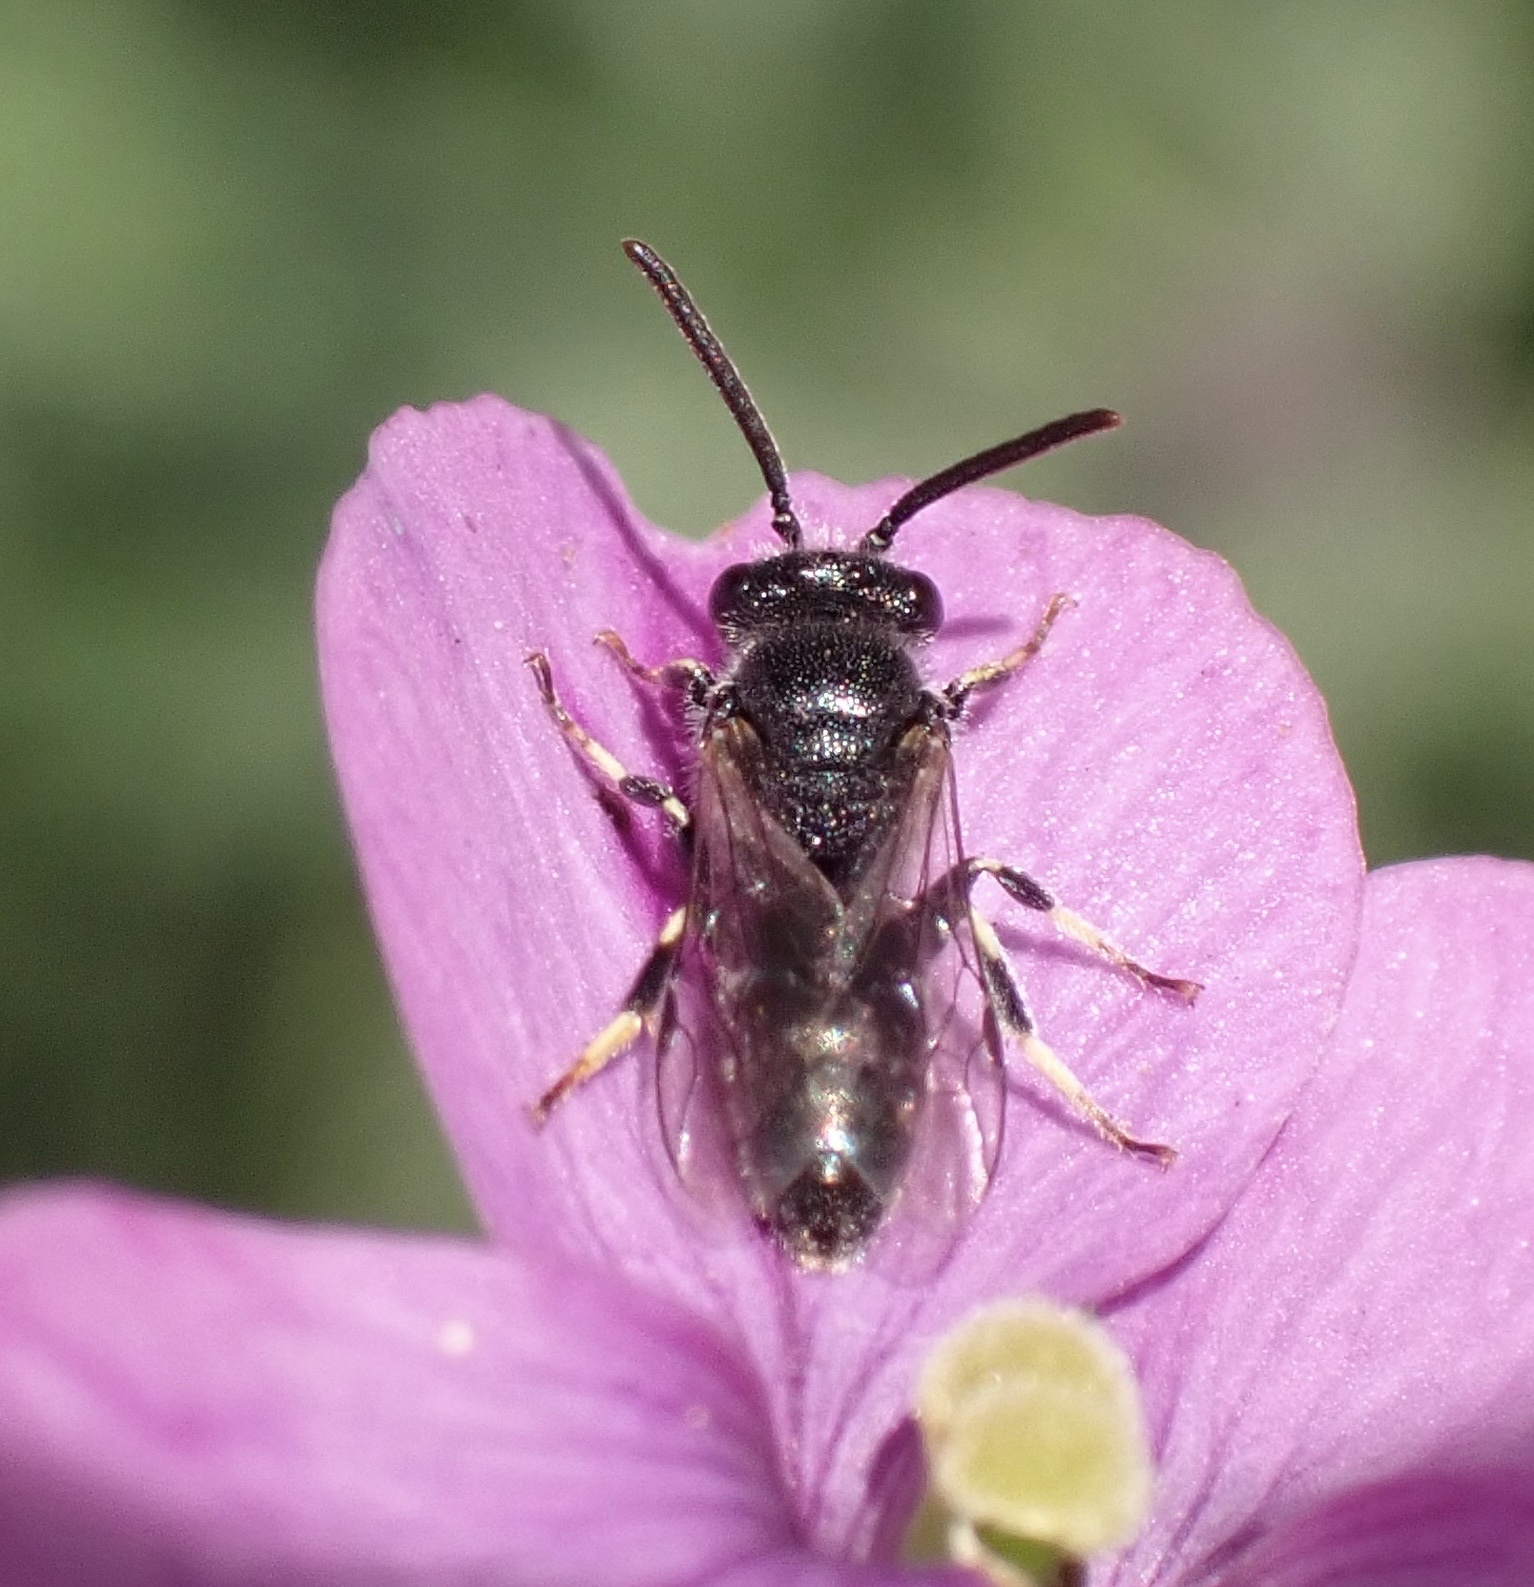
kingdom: Animalia
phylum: Arthropoda
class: Insecta
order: Hymenoptera
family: Colletidae
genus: Hylaeus
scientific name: Hylaeus hyalinatus
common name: Hyaline masked bee
